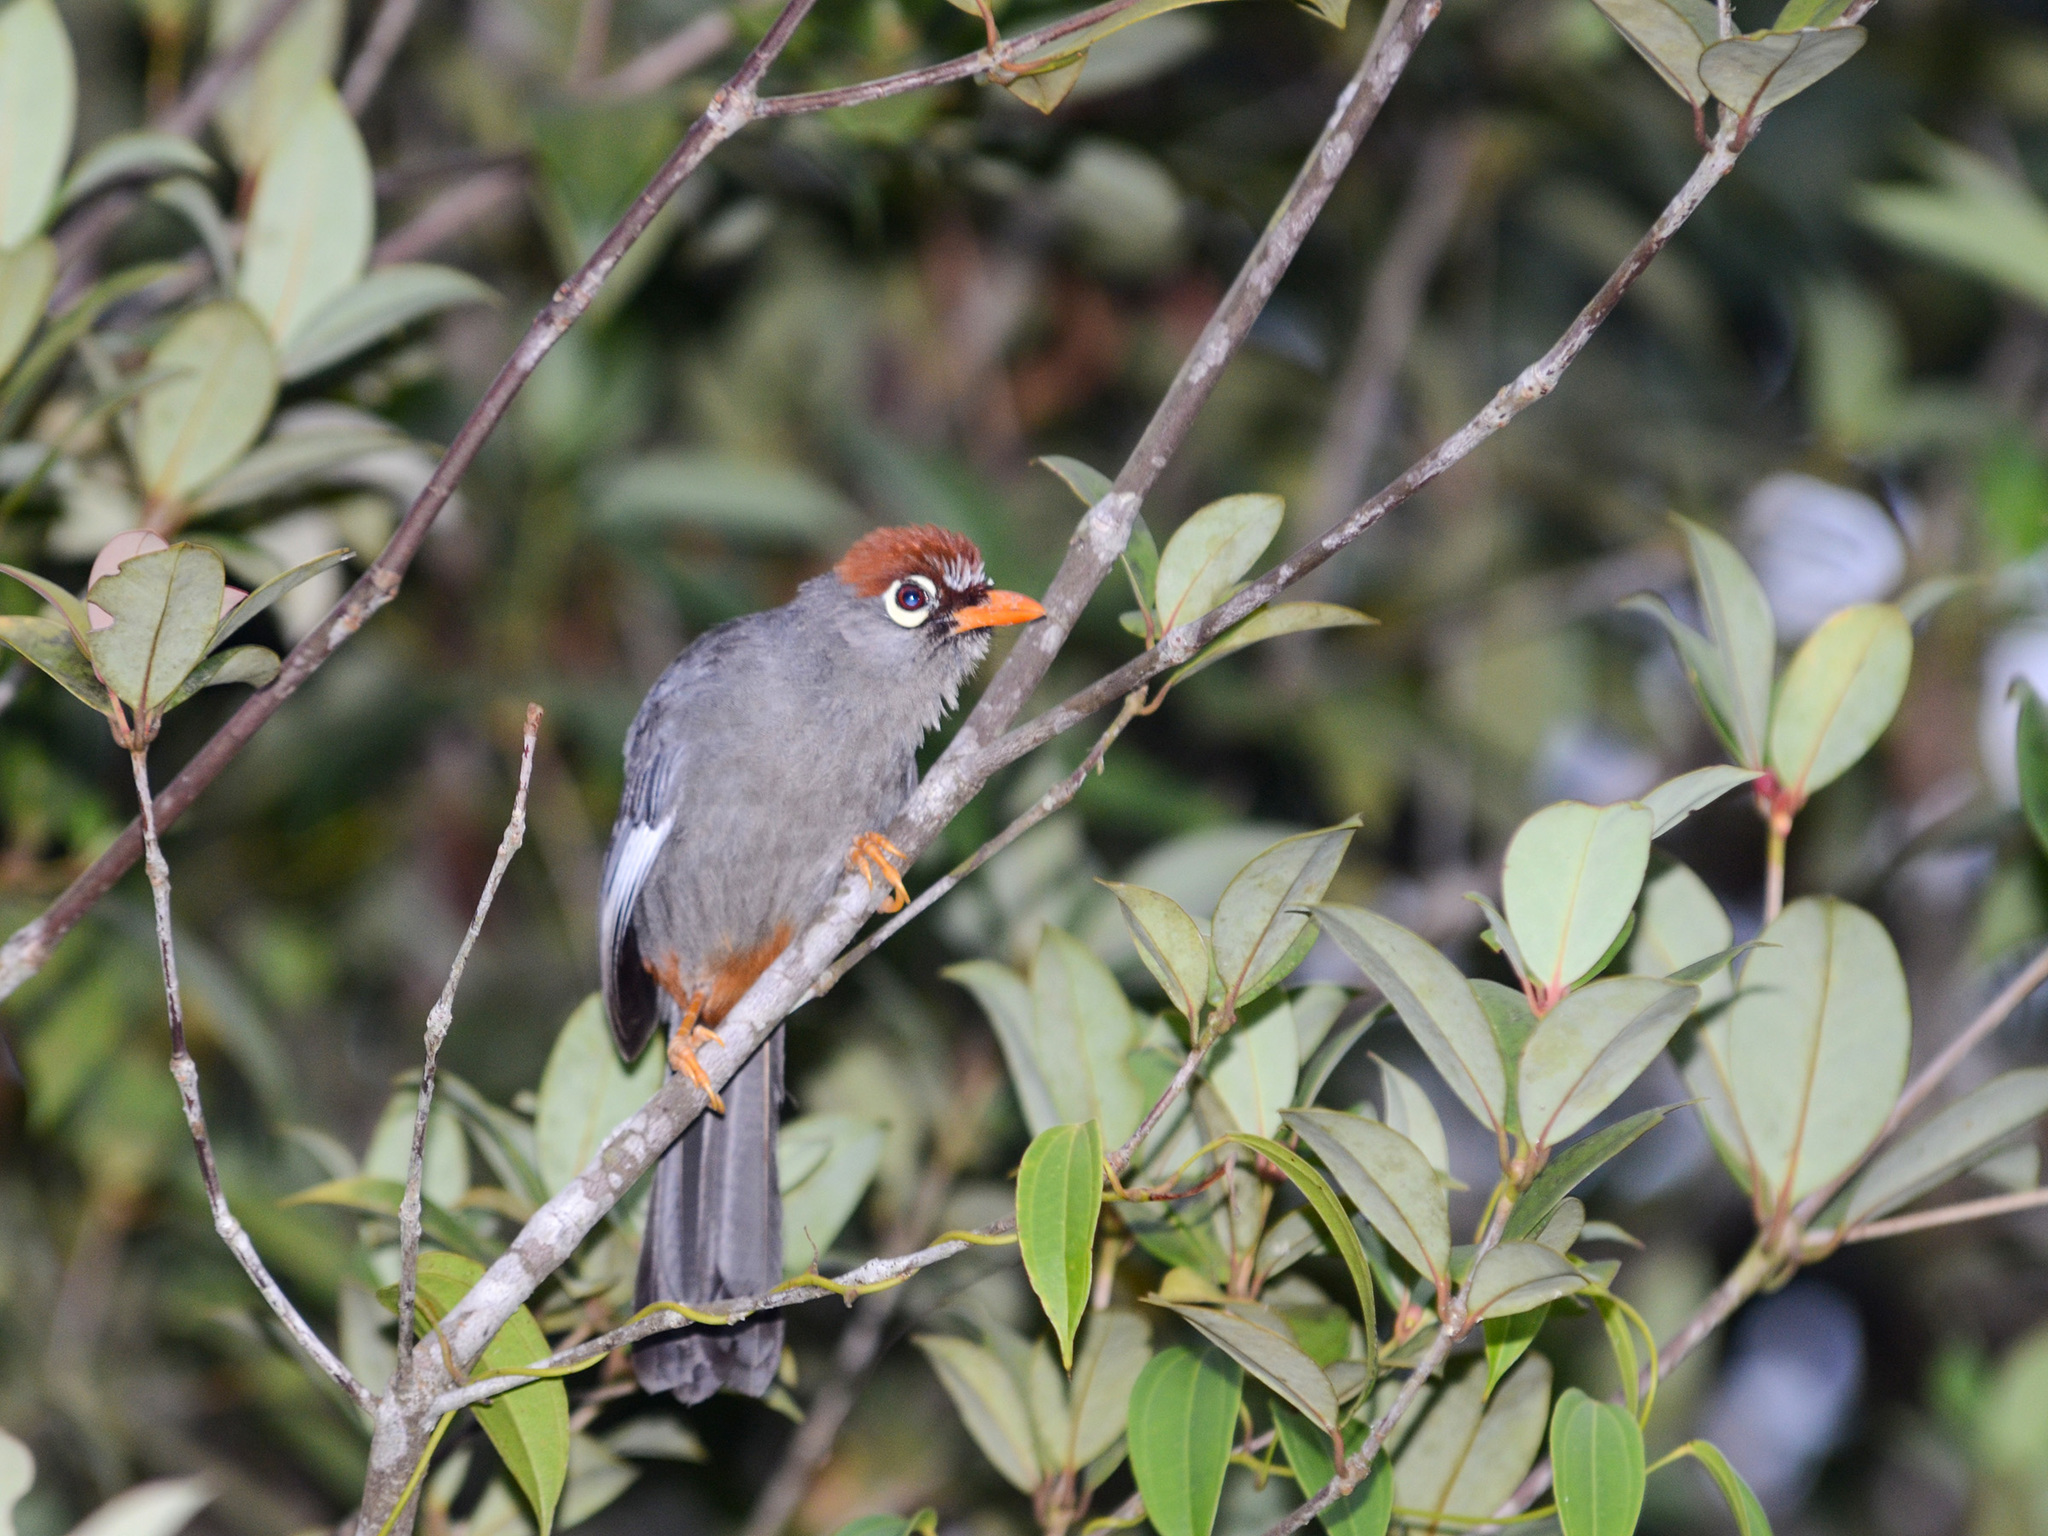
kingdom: Animalia
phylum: Chordata
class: Aves
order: Passeriformes
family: Leiothrichidae
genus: Garrulax
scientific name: Garrulax mitratus
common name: Chestnut-capped laughingthrush
